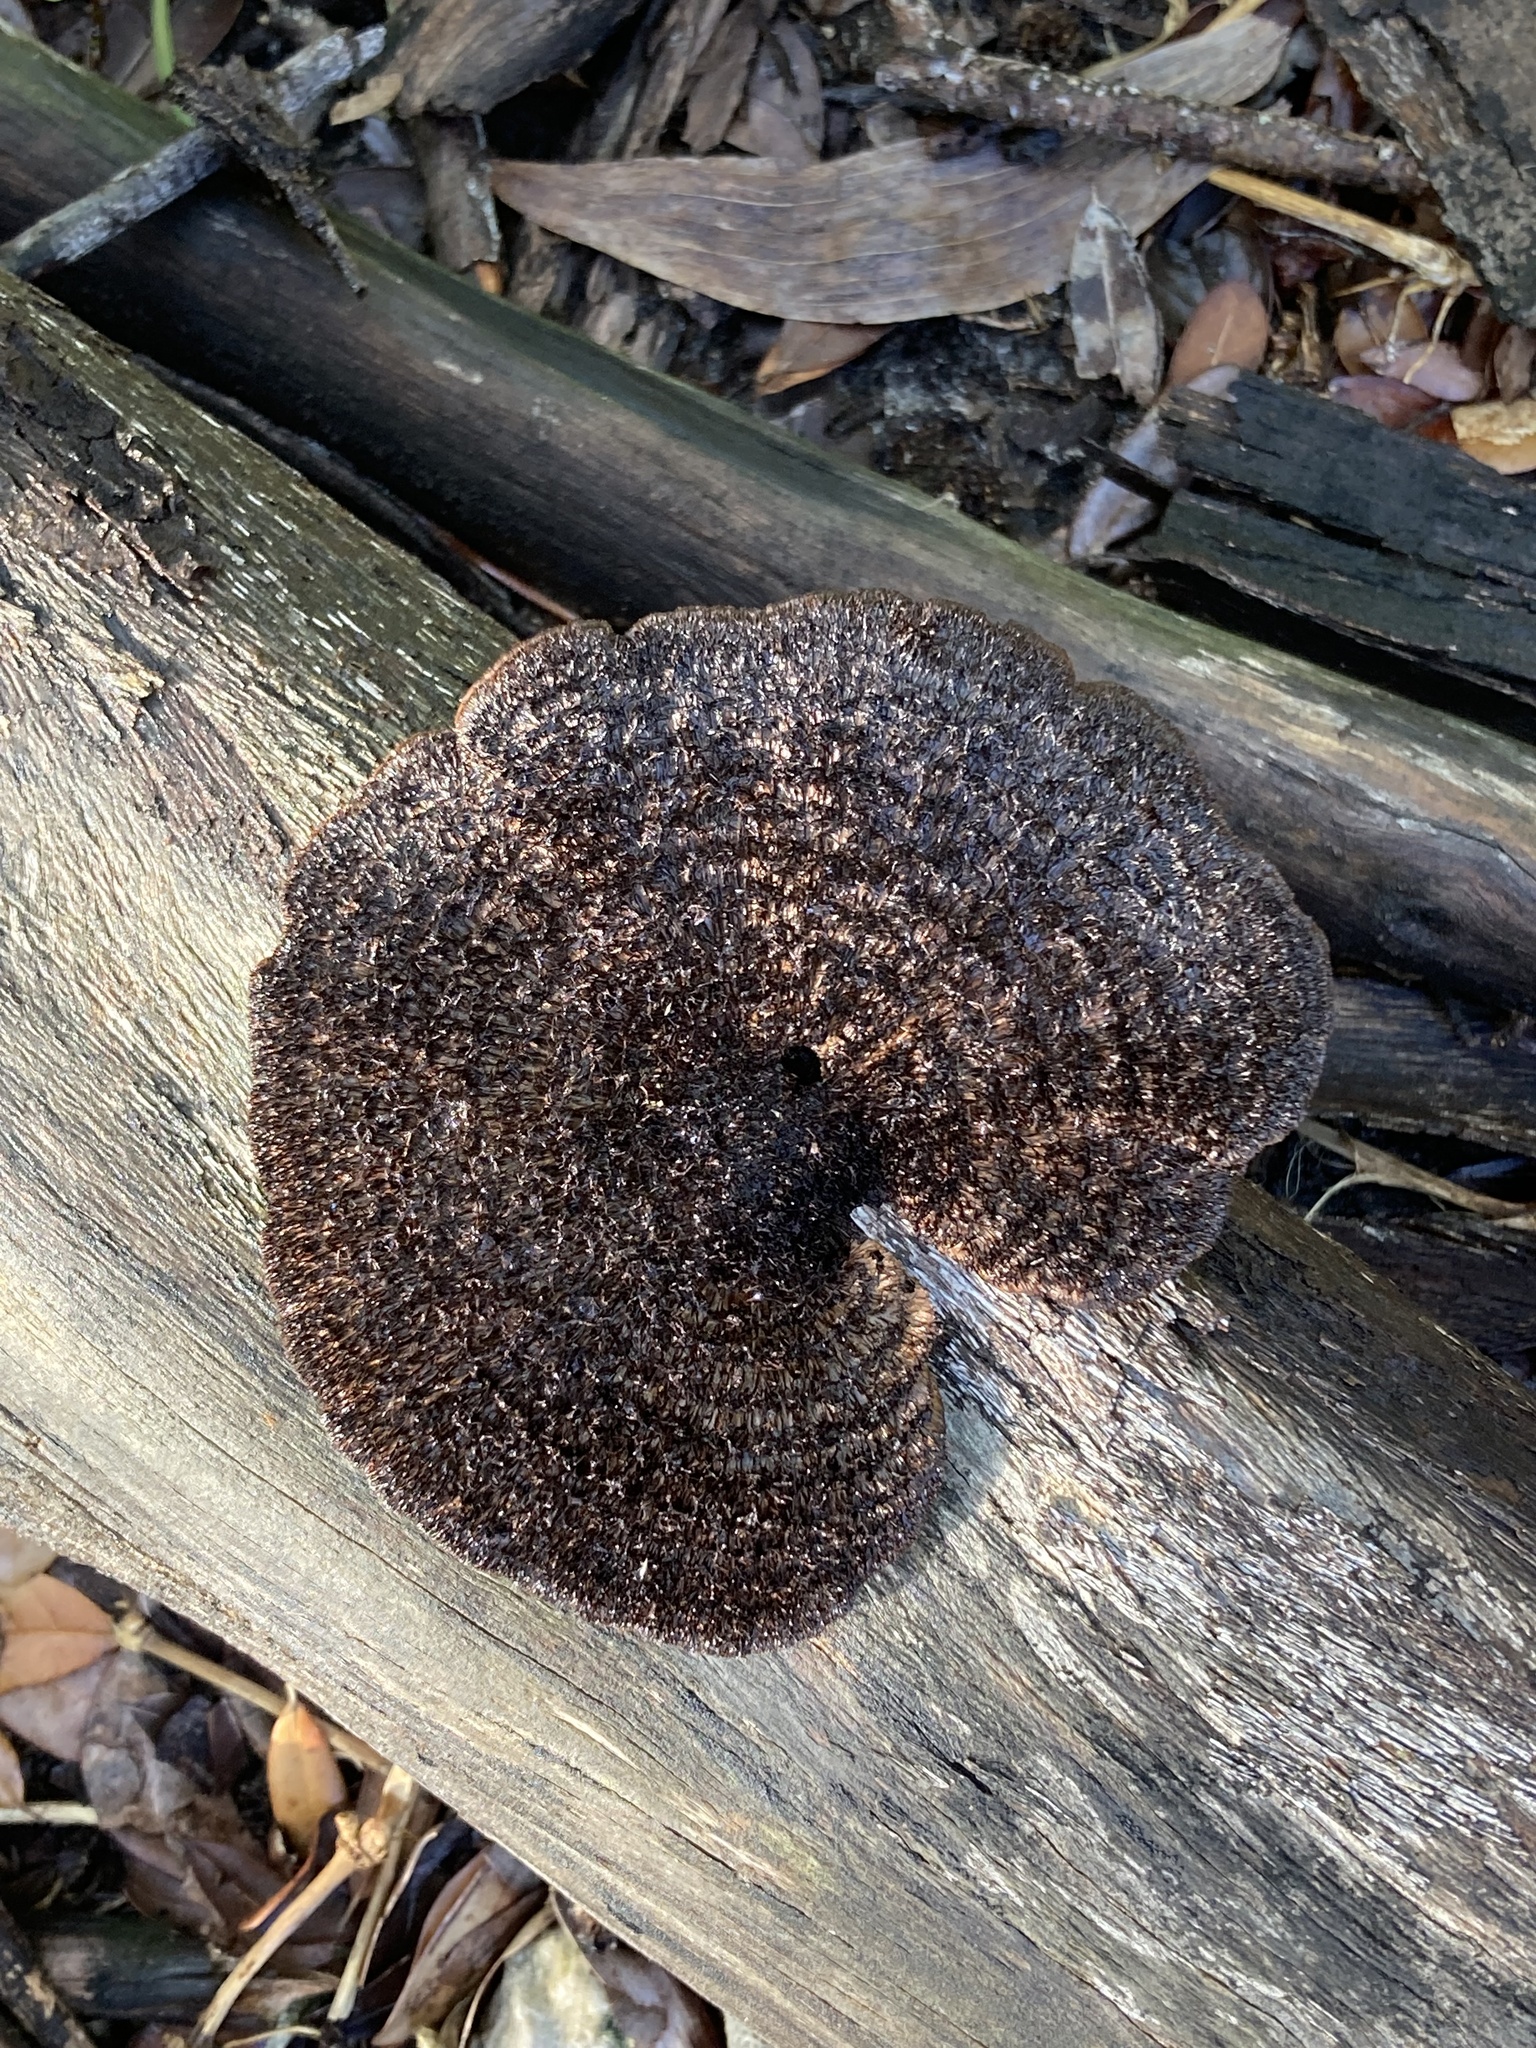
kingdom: Fungi
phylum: Basidiomycota
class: Agaricomycetes
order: Polyporales
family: Cerrenaceae
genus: Cerrena
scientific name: Cerrena hydnoides
